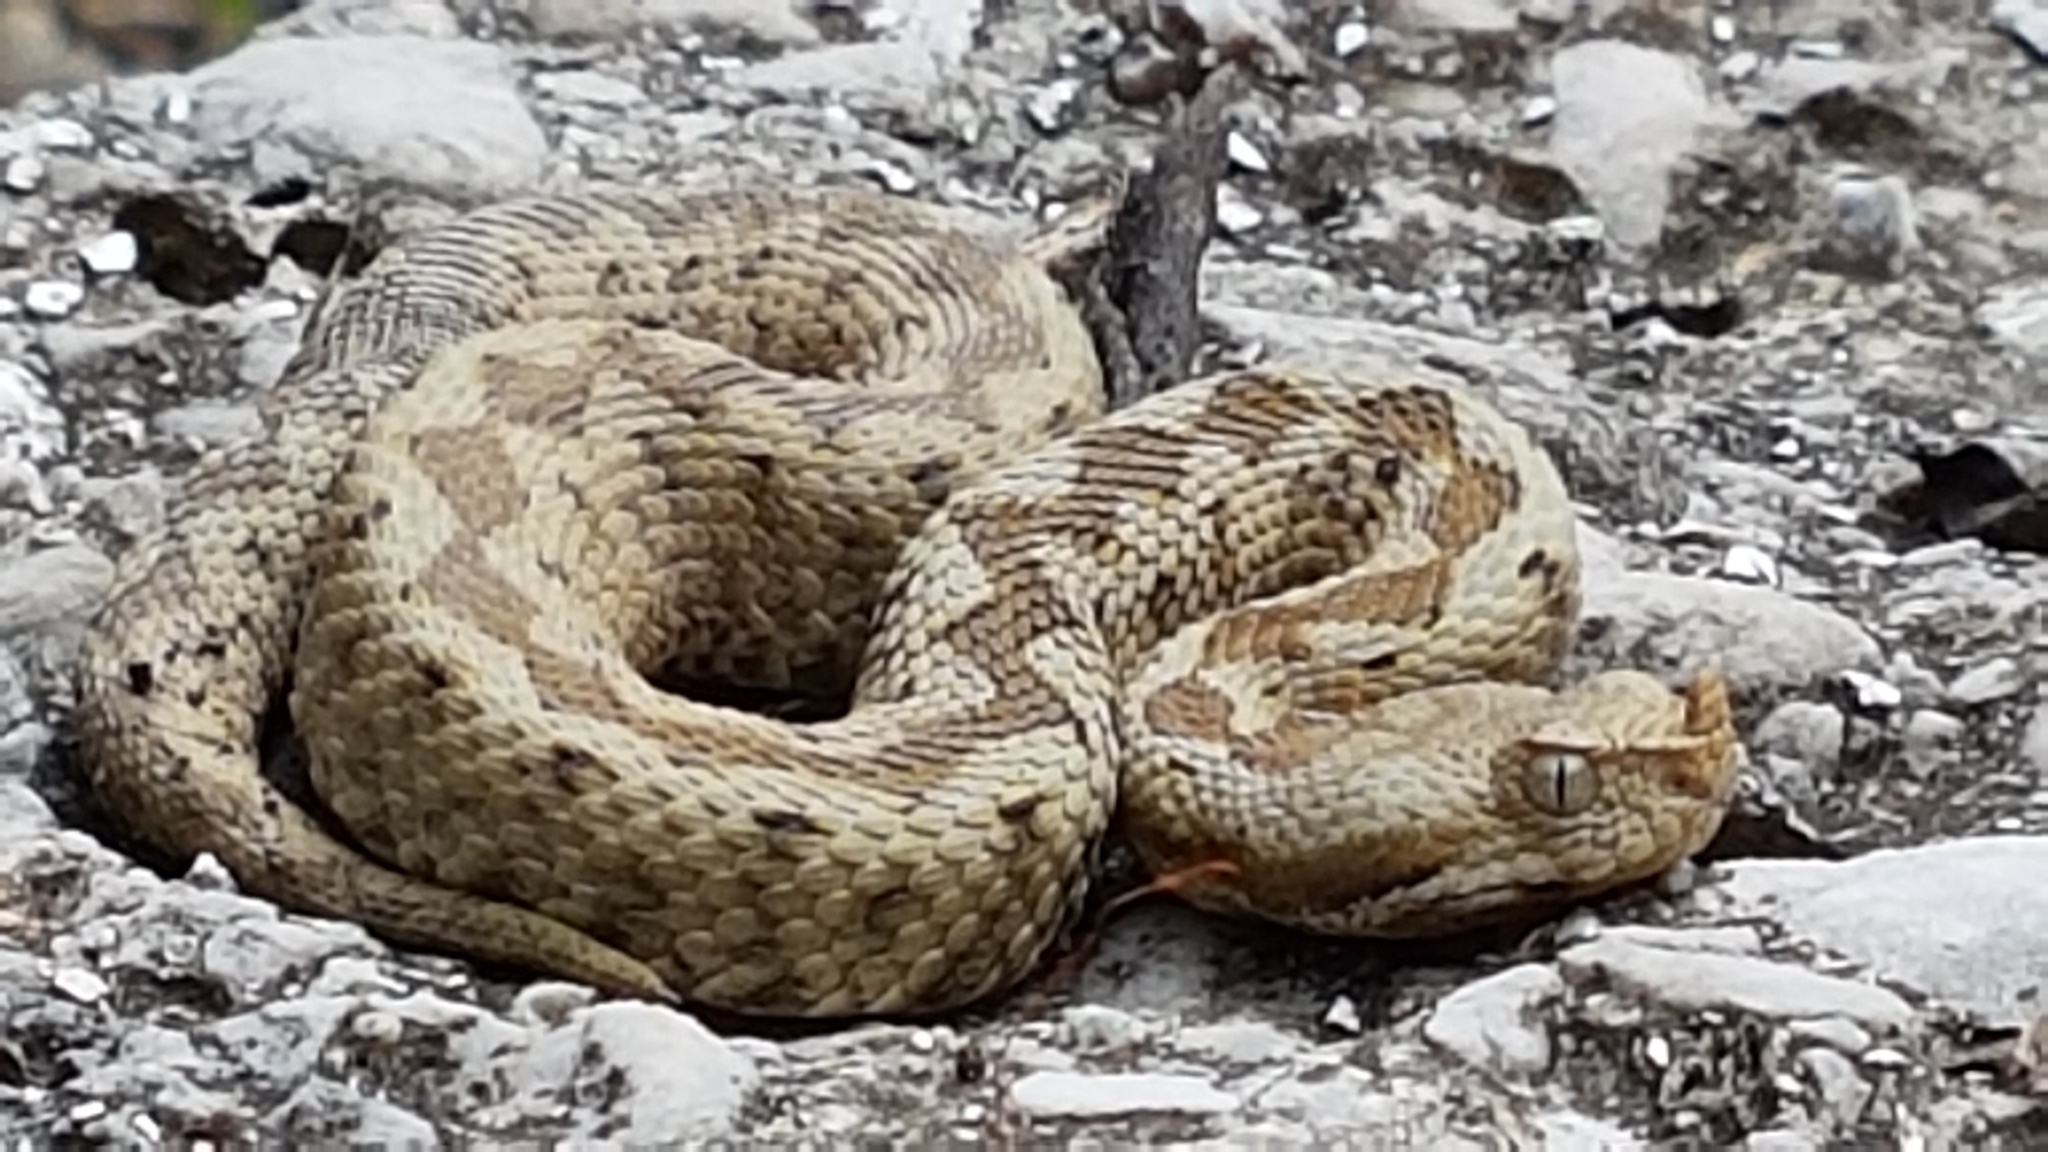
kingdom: Animalia
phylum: Chordata
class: Squamata
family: Viperidae
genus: Vipera
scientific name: Vipera ammodytes
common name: Sand viper
